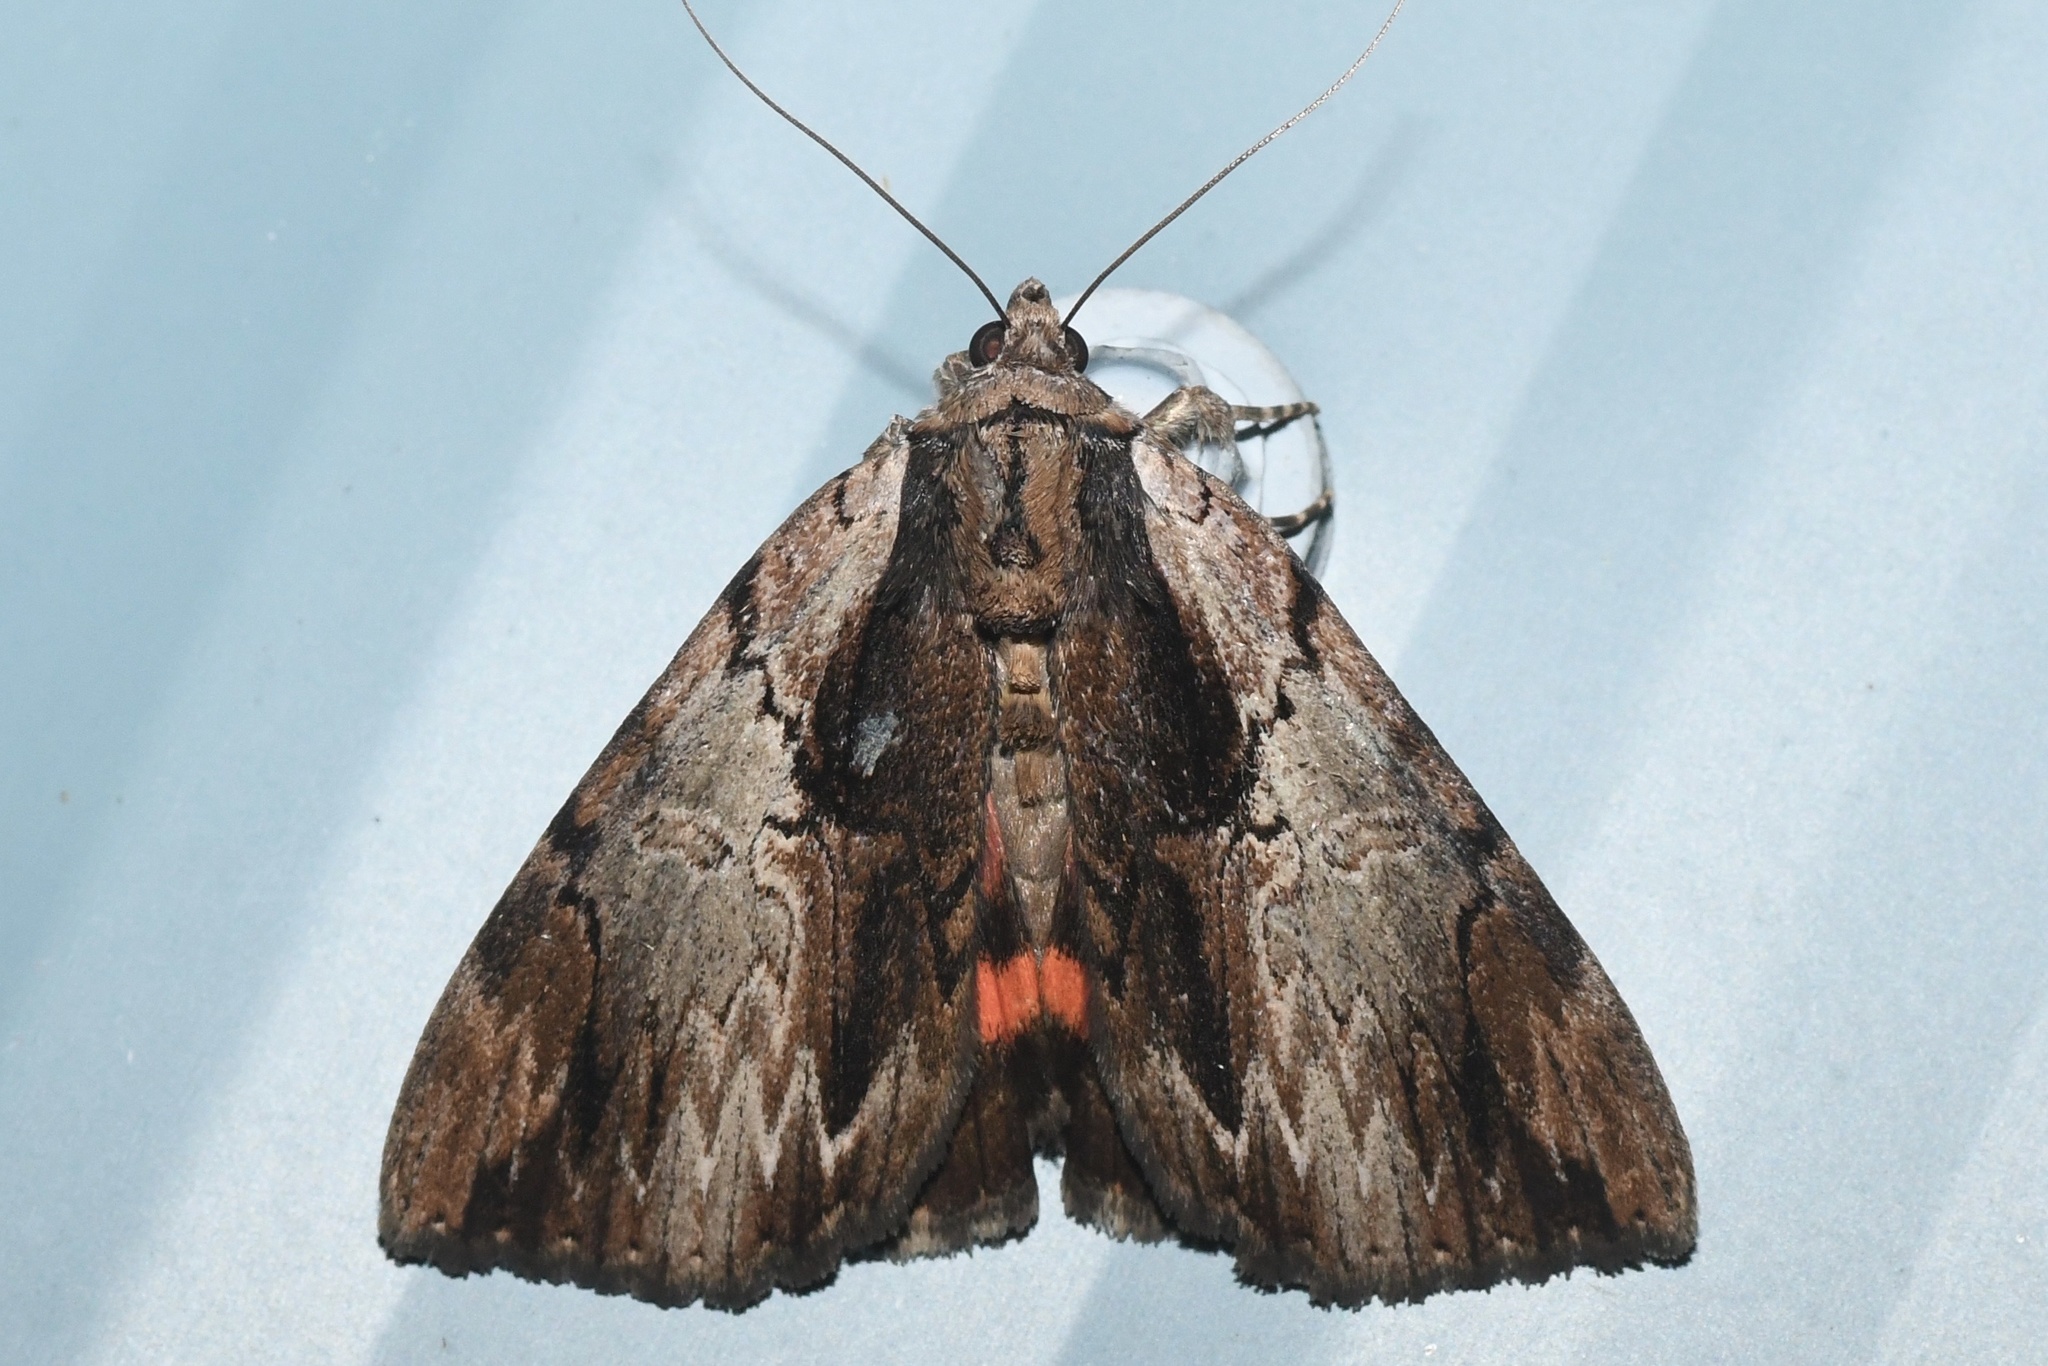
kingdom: Animalia
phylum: Arthropoda
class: Insecta
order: Lepidoptera
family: Erebidae
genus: Catocala
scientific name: Catocala ultronia
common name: Ultronia underwing
